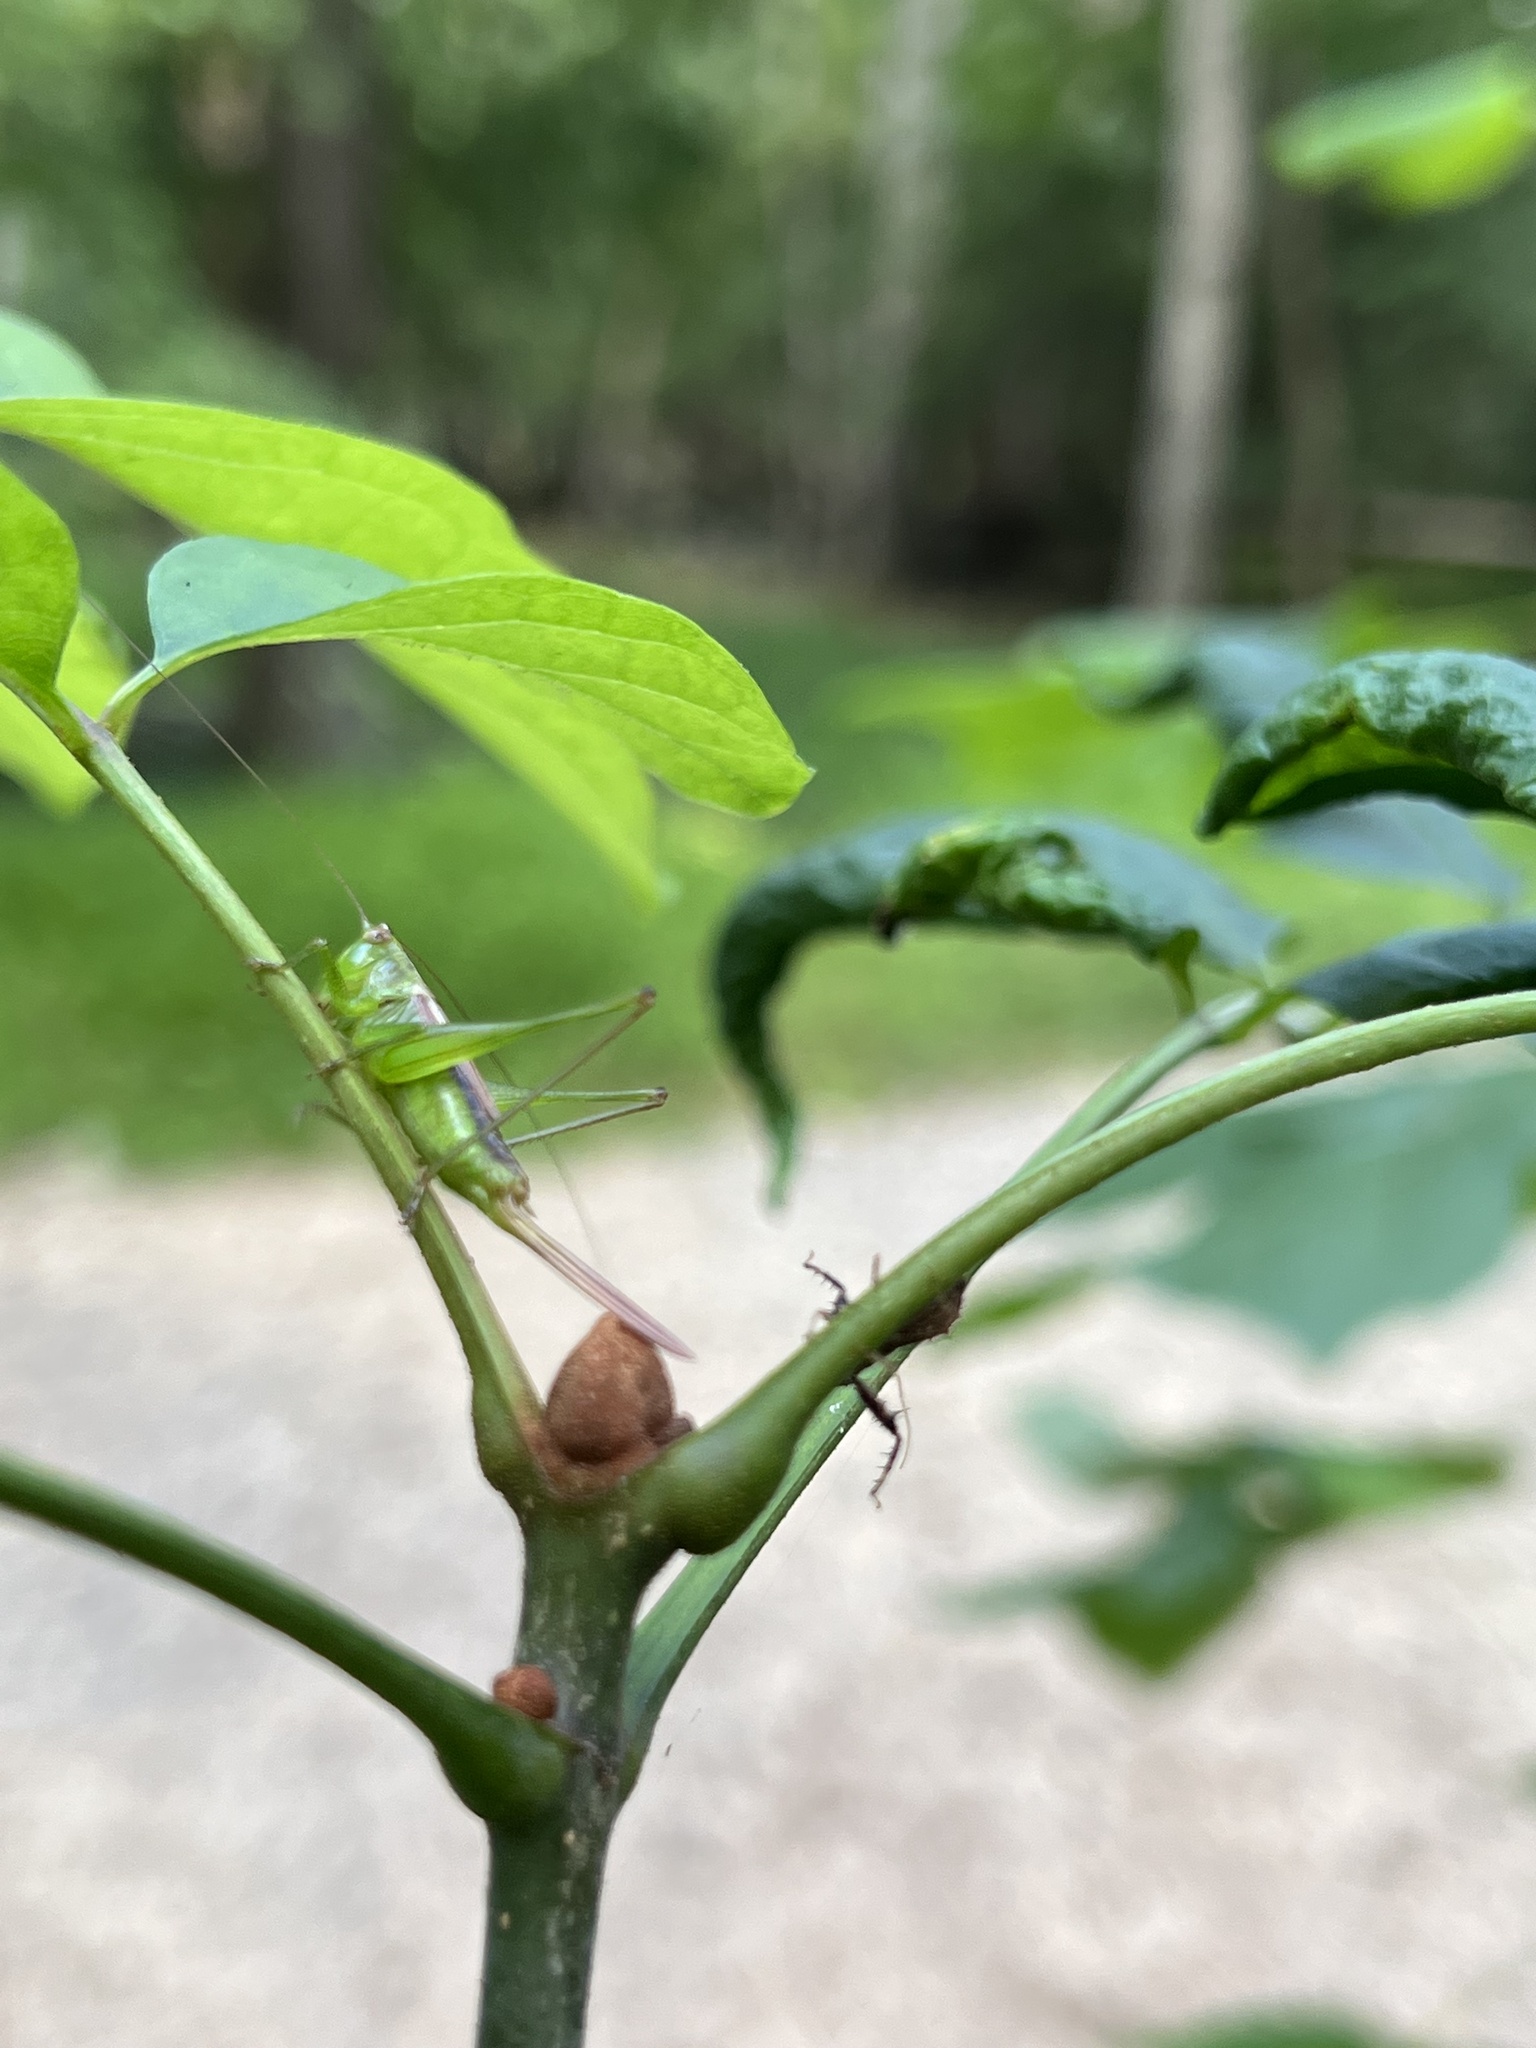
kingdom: Animalia
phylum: Arthropoda
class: Insecta
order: Orthoptera
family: Tettigoniidae
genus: Conocephalus
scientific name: Conocephalus brevipennis
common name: Short-winged meadow katydid
